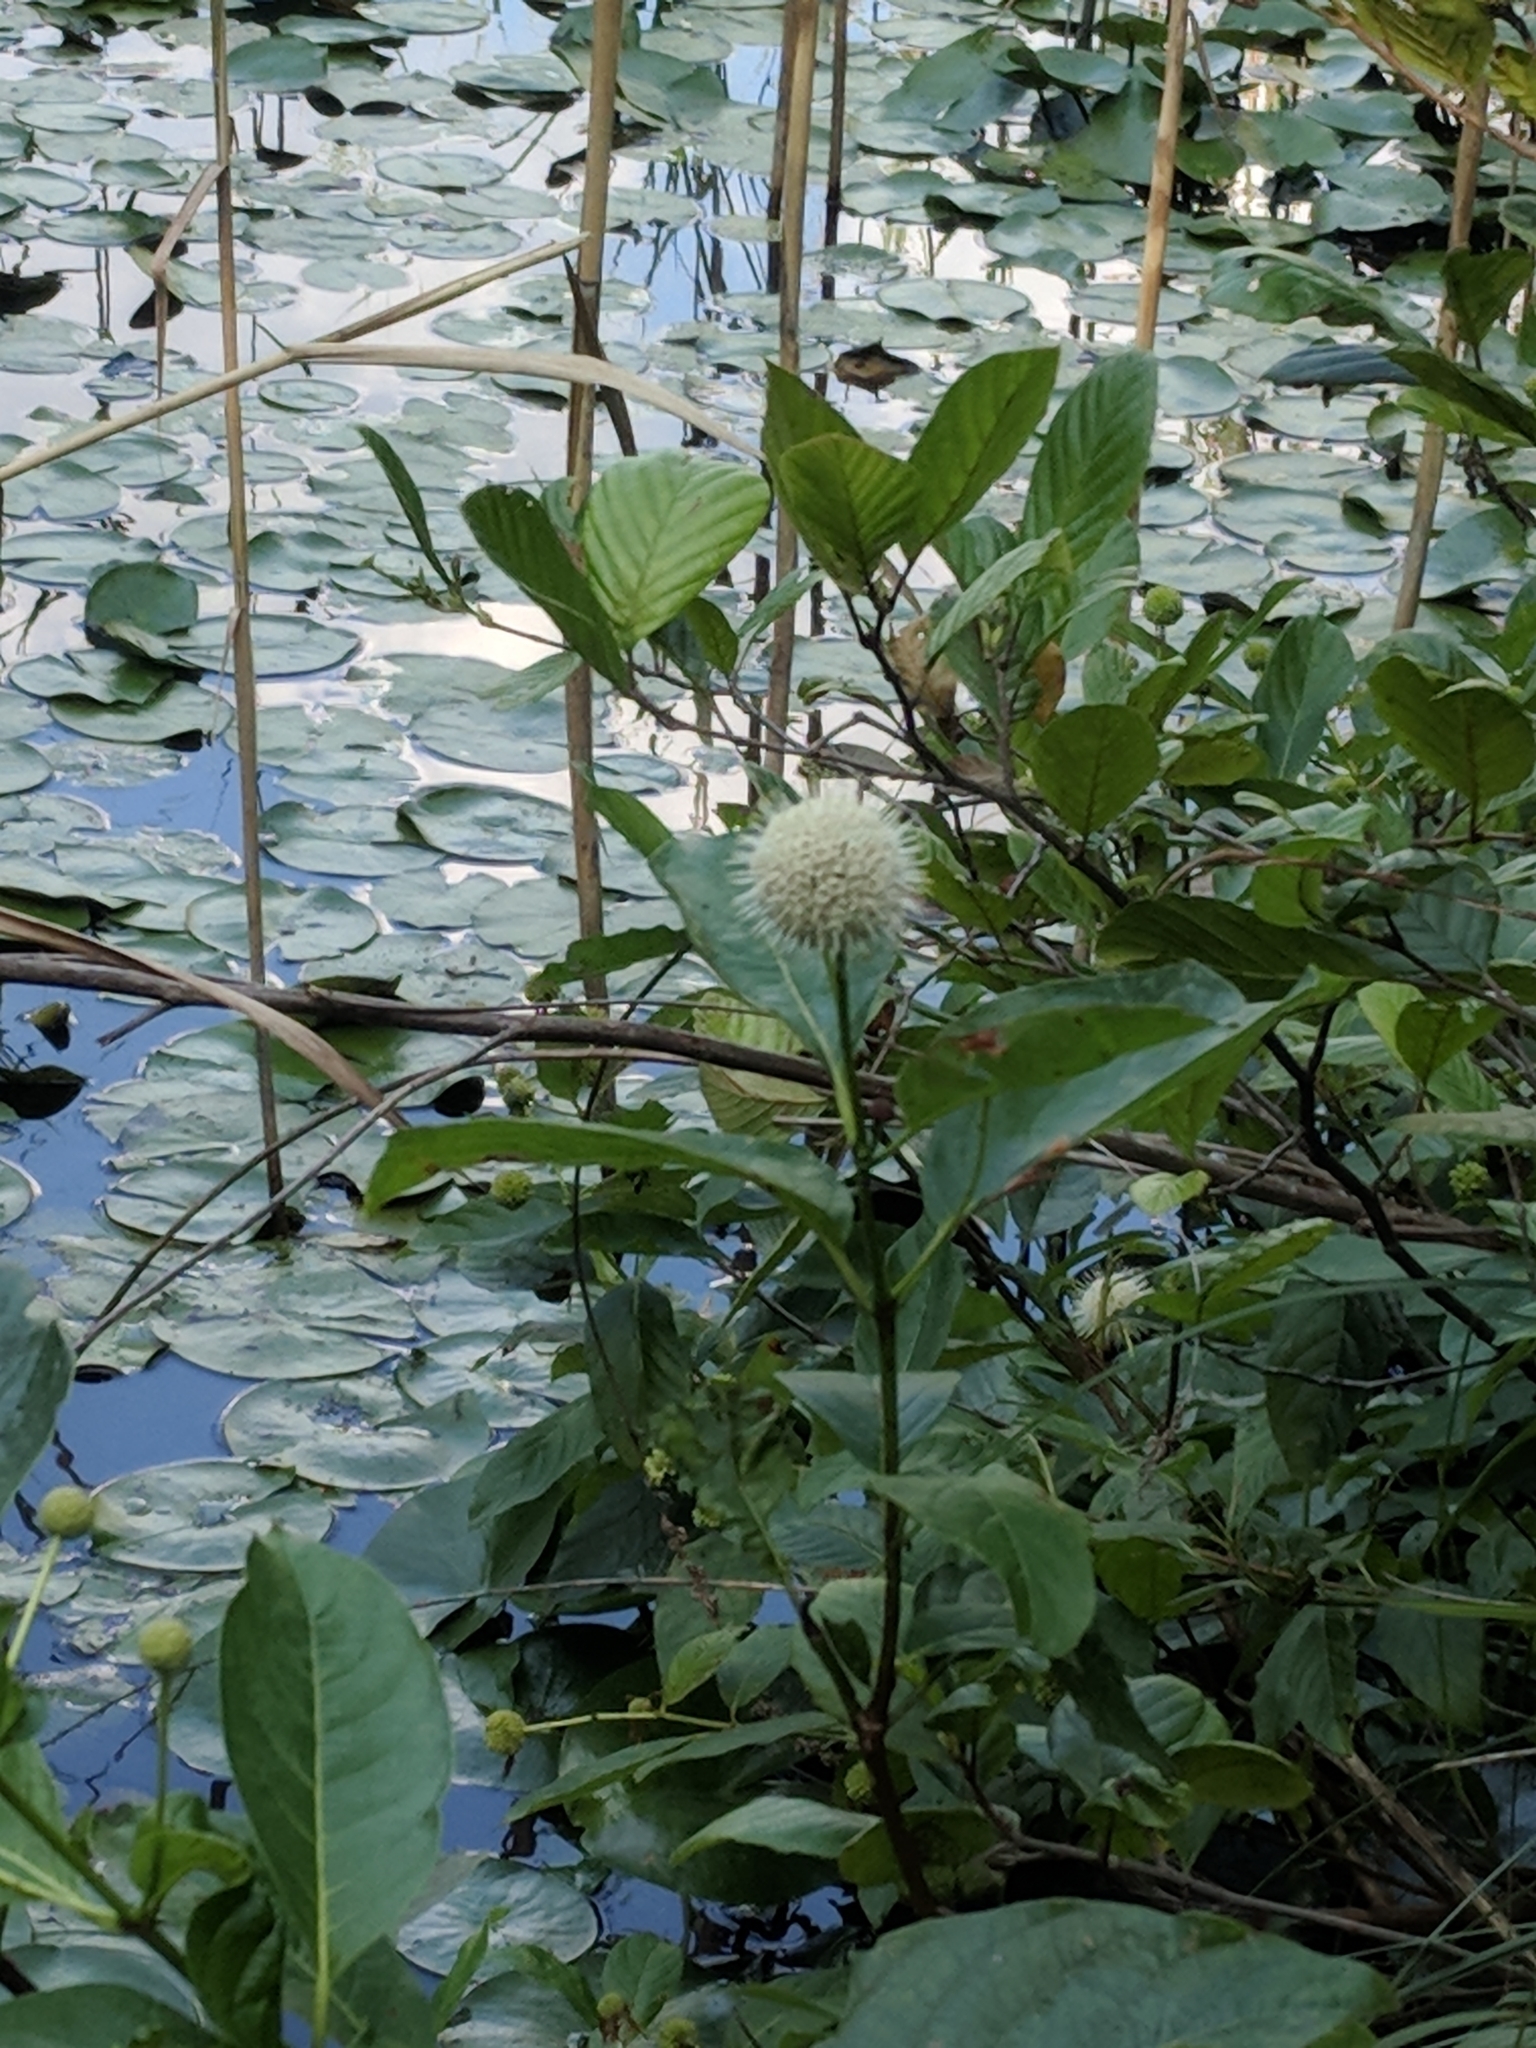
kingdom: Plantae
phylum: Tracheophyta
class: Magnoliopsida
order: Gentianales
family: Rubiaceae
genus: Cephalanthus
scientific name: Cephalanthus occidentalis
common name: Button-willow
